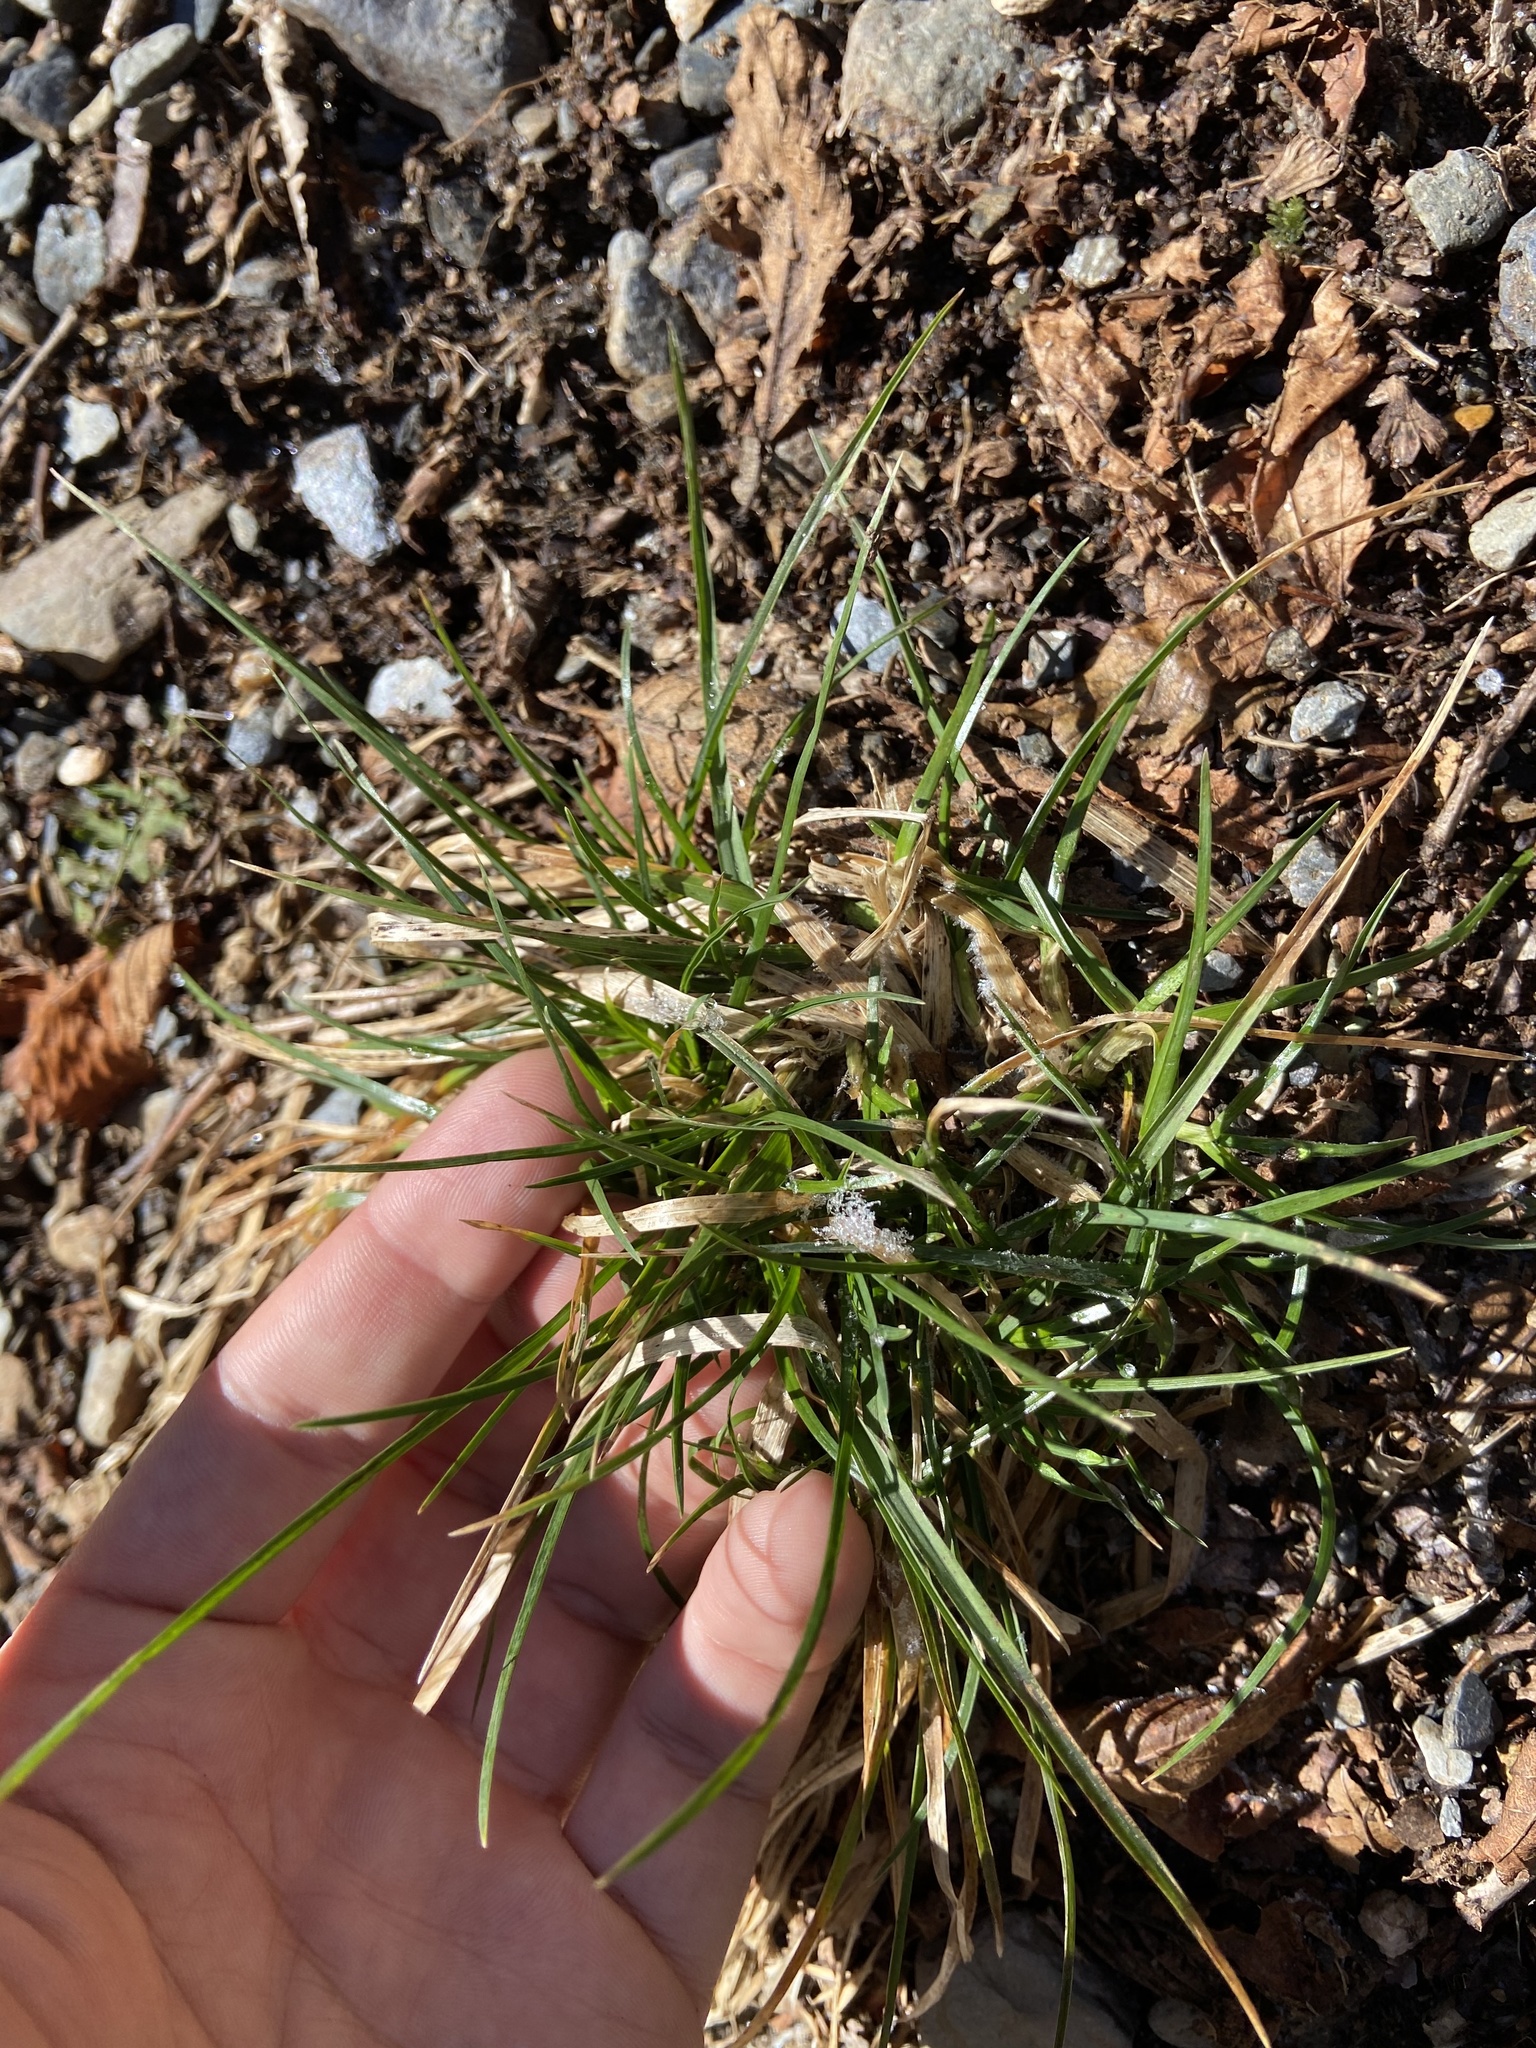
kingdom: Plantae
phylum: Tracheophyta
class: Liliopsida
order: Poales
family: Poaceae
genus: Danthonia
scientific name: Danthonia spicata
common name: Common wild oatgrass
